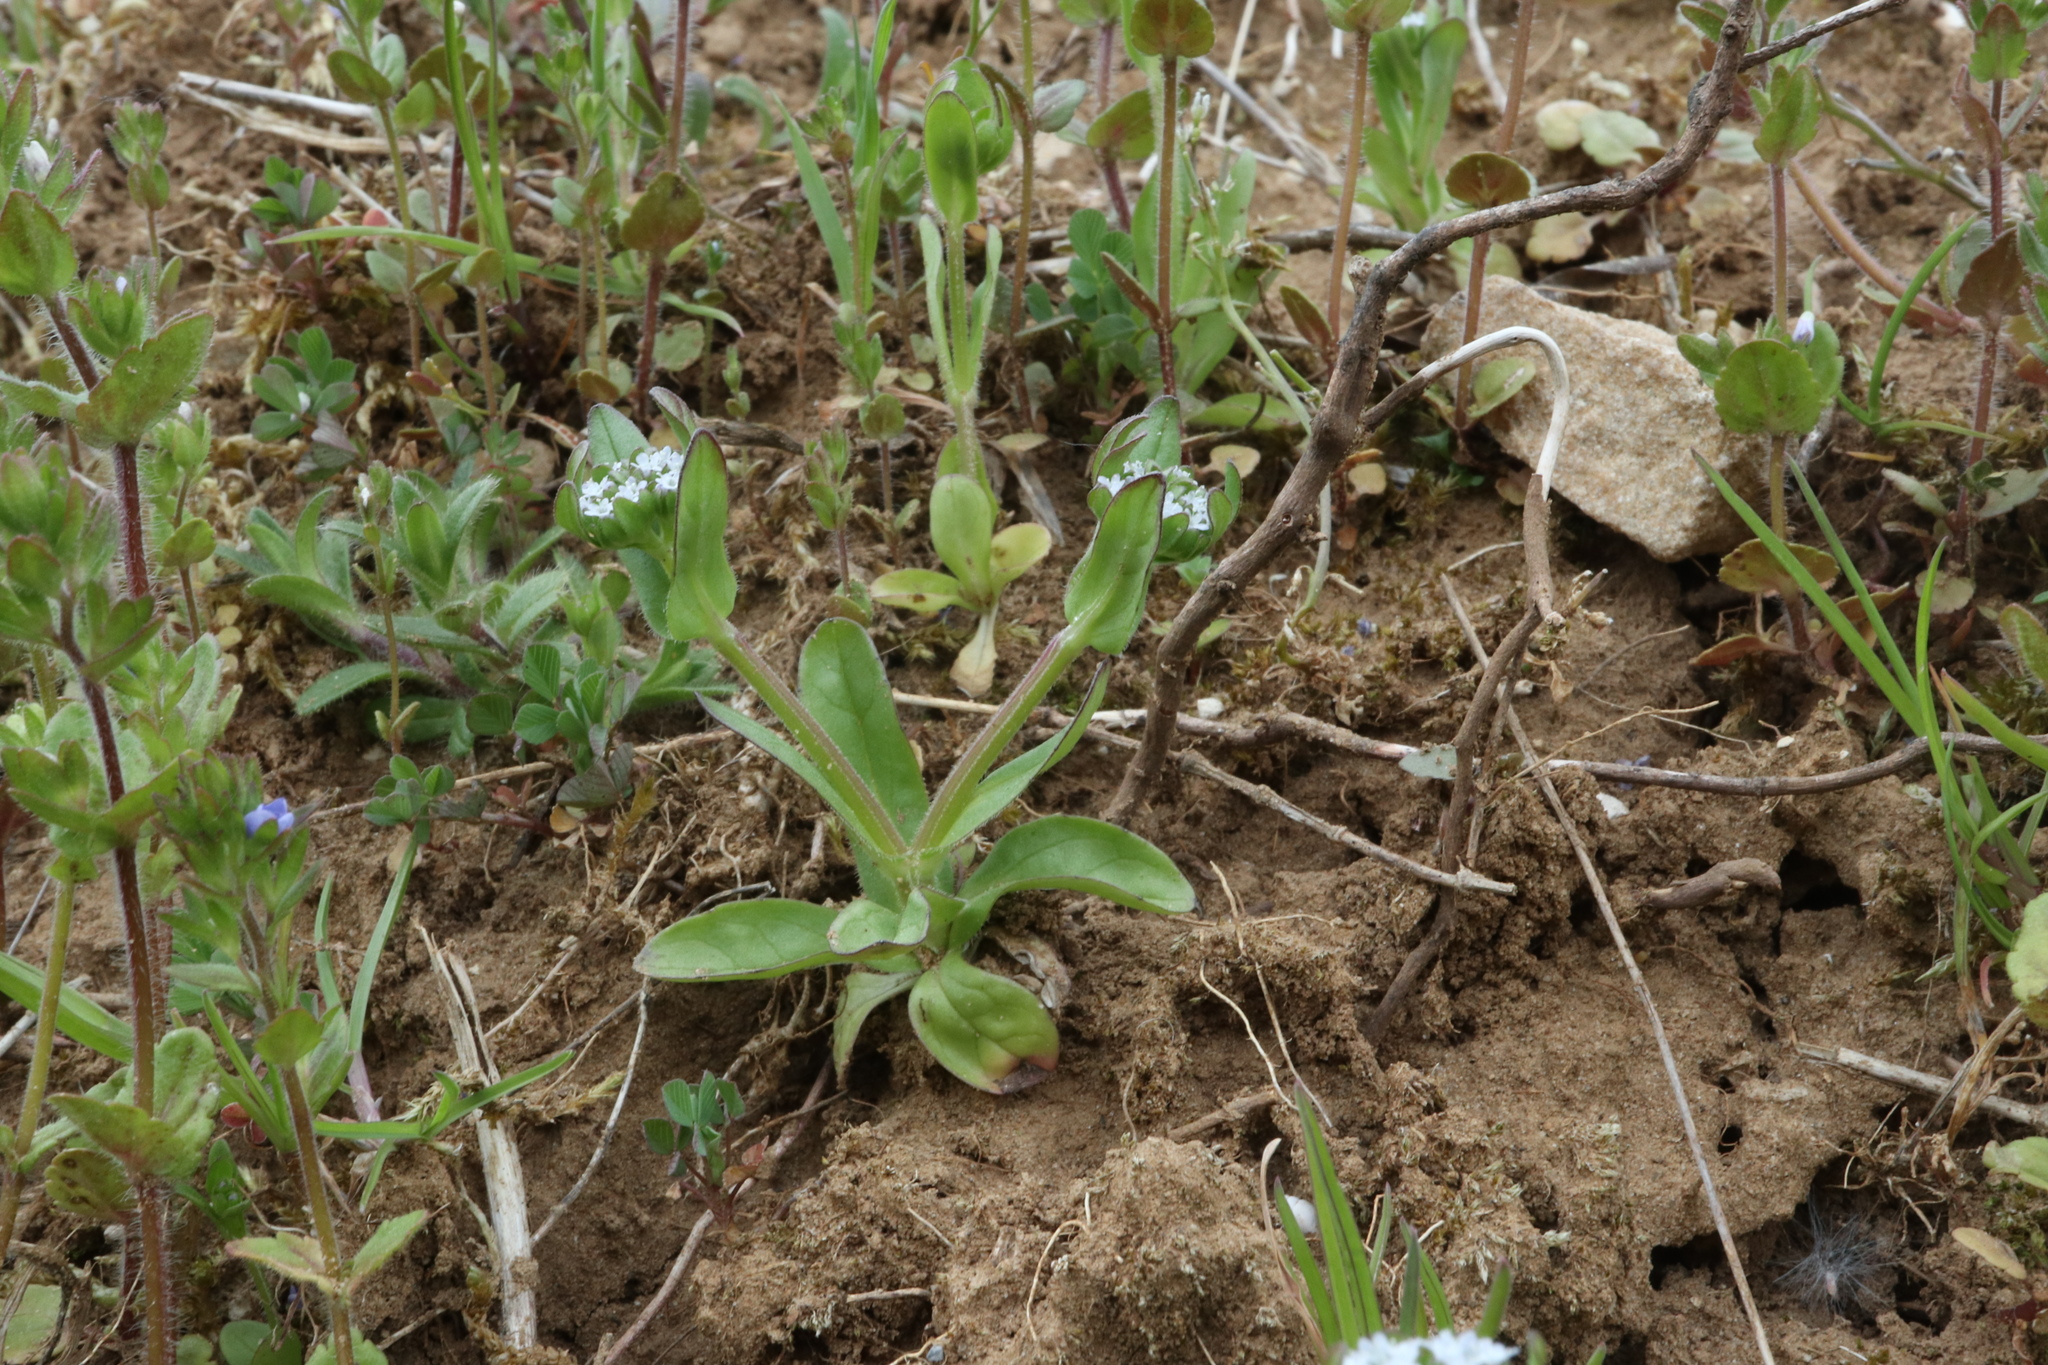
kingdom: Plantae
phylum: Tracheophyta
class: Magnoliopsida
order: Dipsacales
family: Caprifoliaceae
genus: Valerianella
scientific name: Valerianella locusta
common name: Common cornsalad
